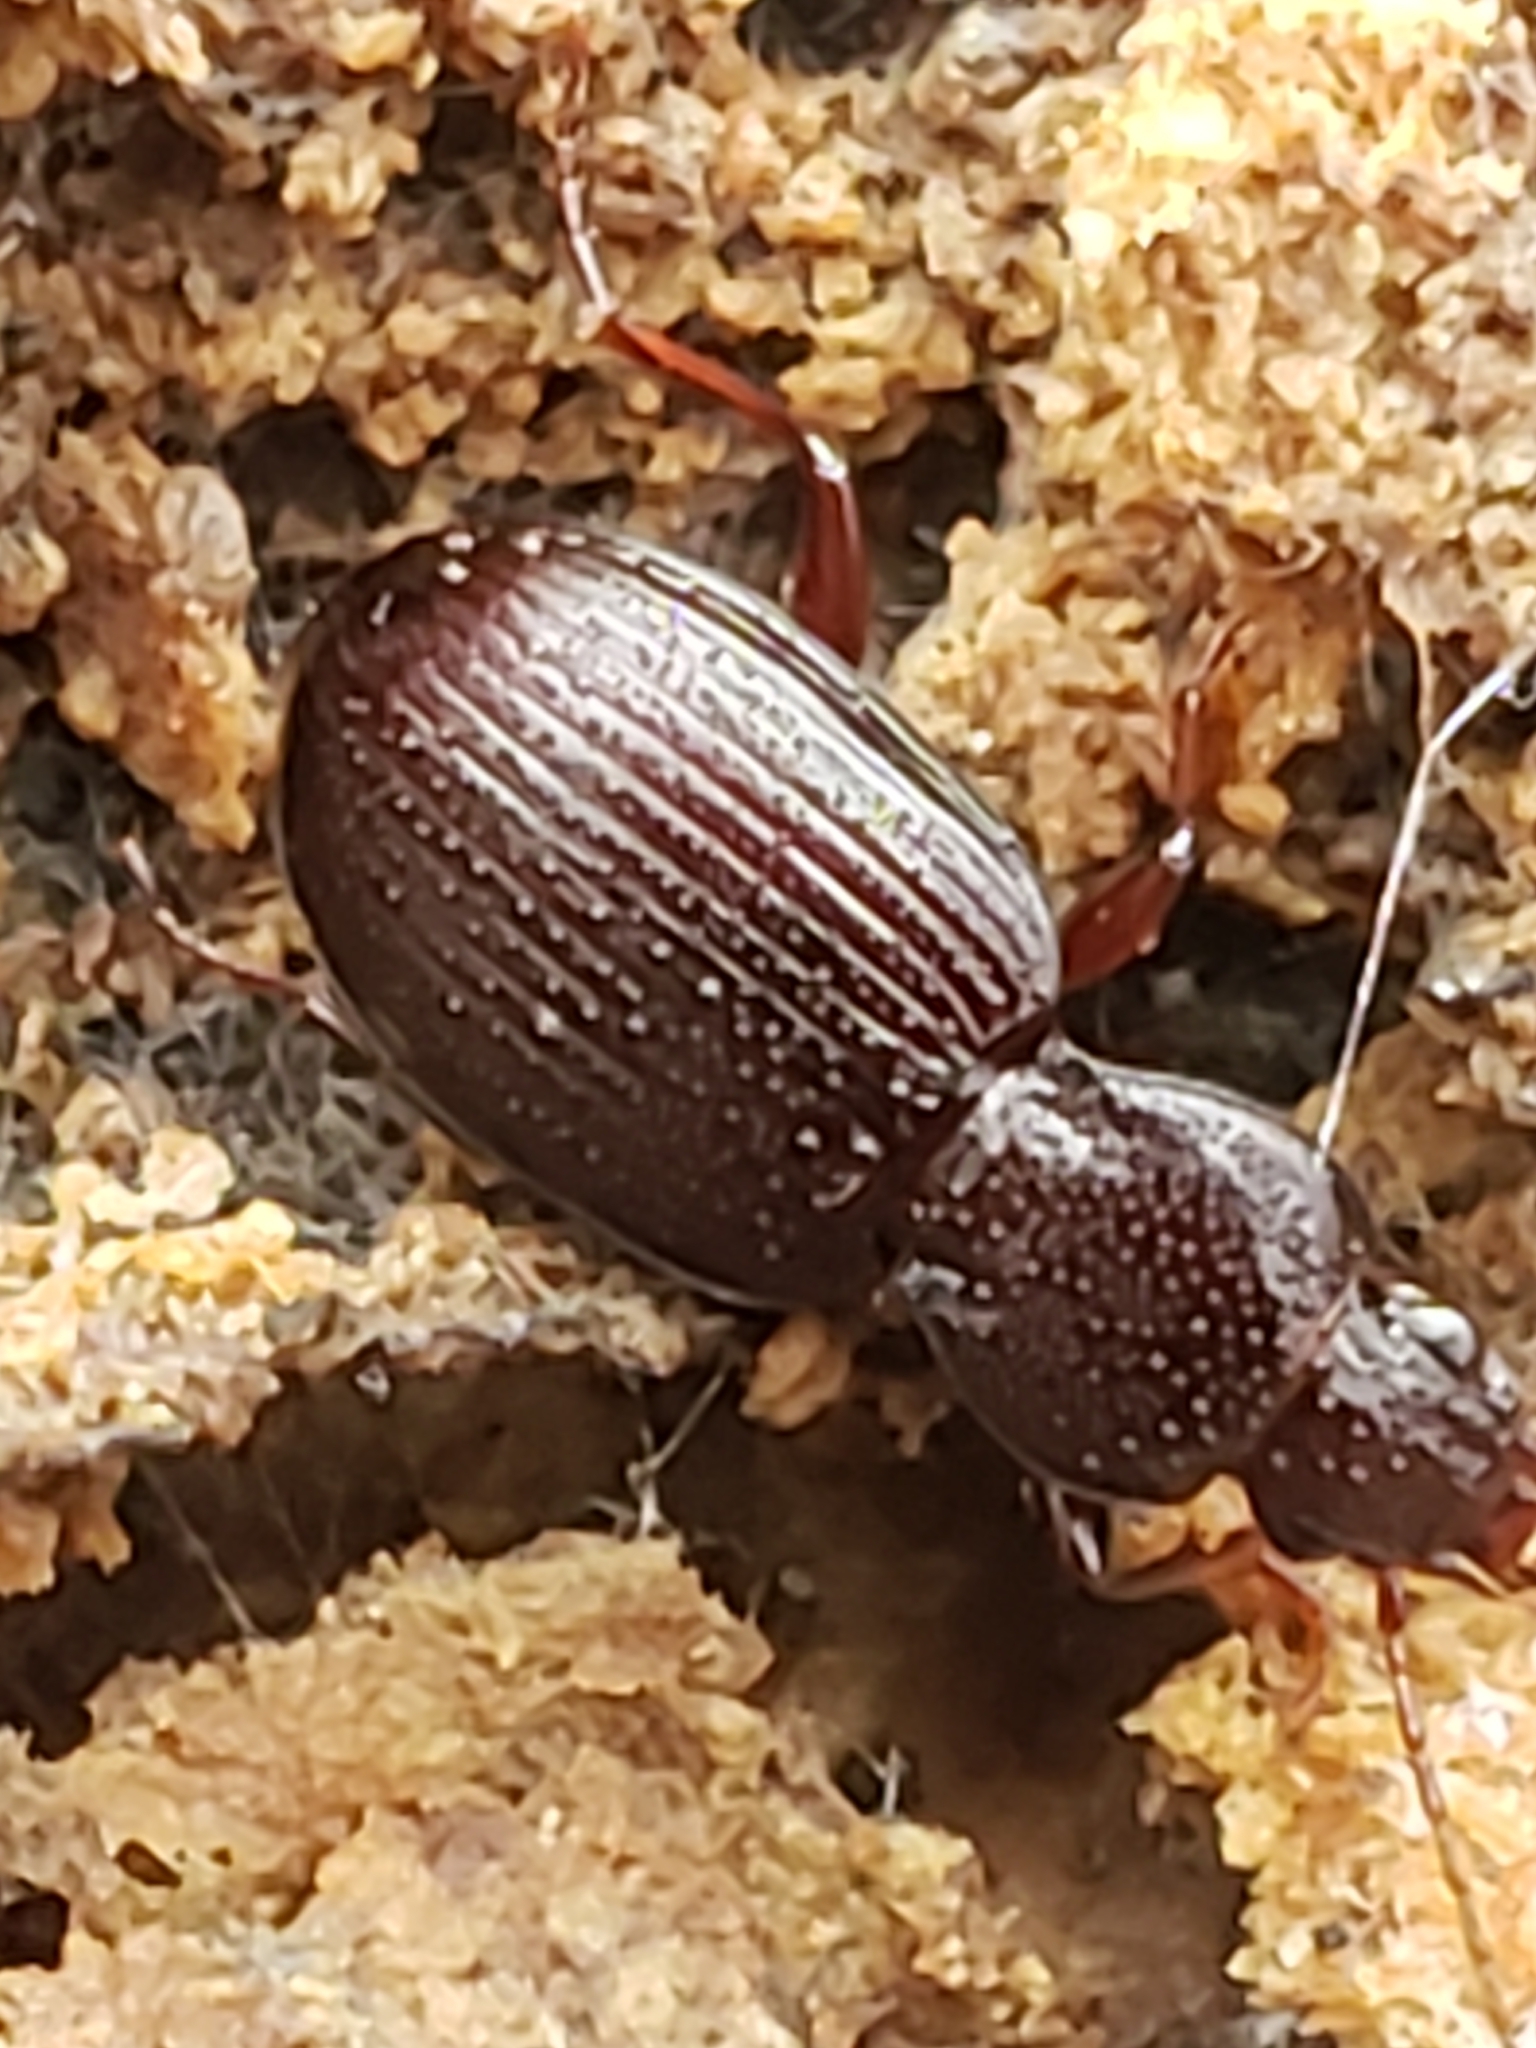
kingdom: Animalia
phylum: Arthropoda
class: Insecta
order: Coleoptera
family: Carabidae
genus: Gastrellarius
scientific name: Gastrellarius honestus
